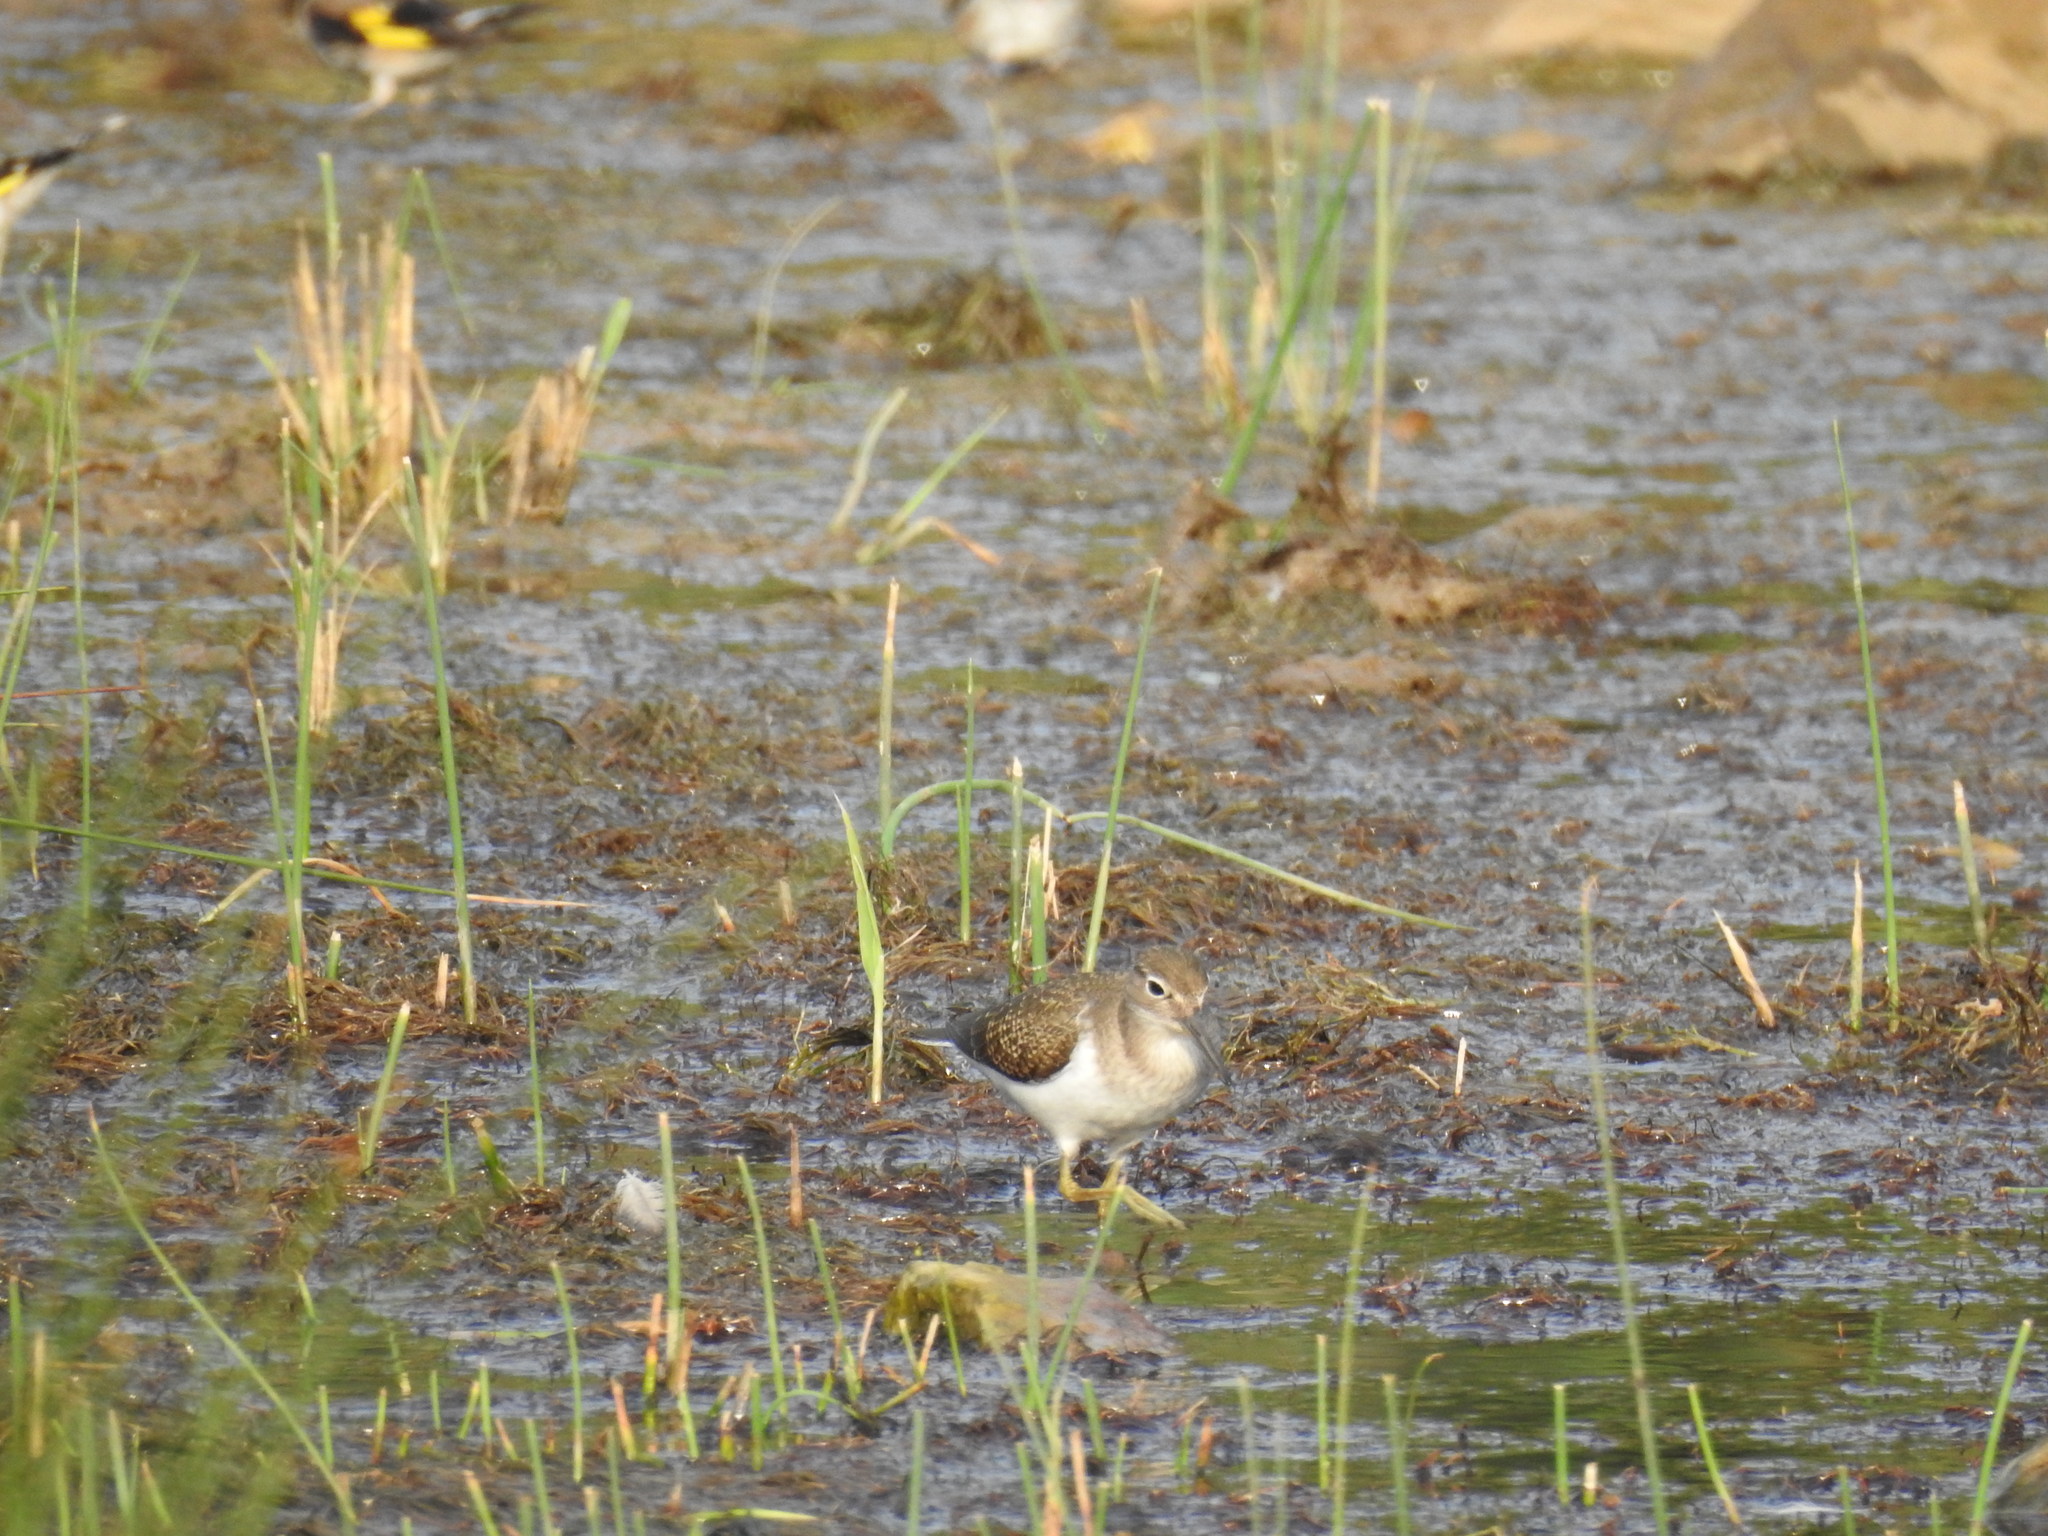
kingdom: Animalia
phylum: Chordata
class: Aves
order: Charadriiformes
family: Scolopacidae
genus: Actitis
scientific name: Actitis hypoleucos
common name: Common sandpiper
